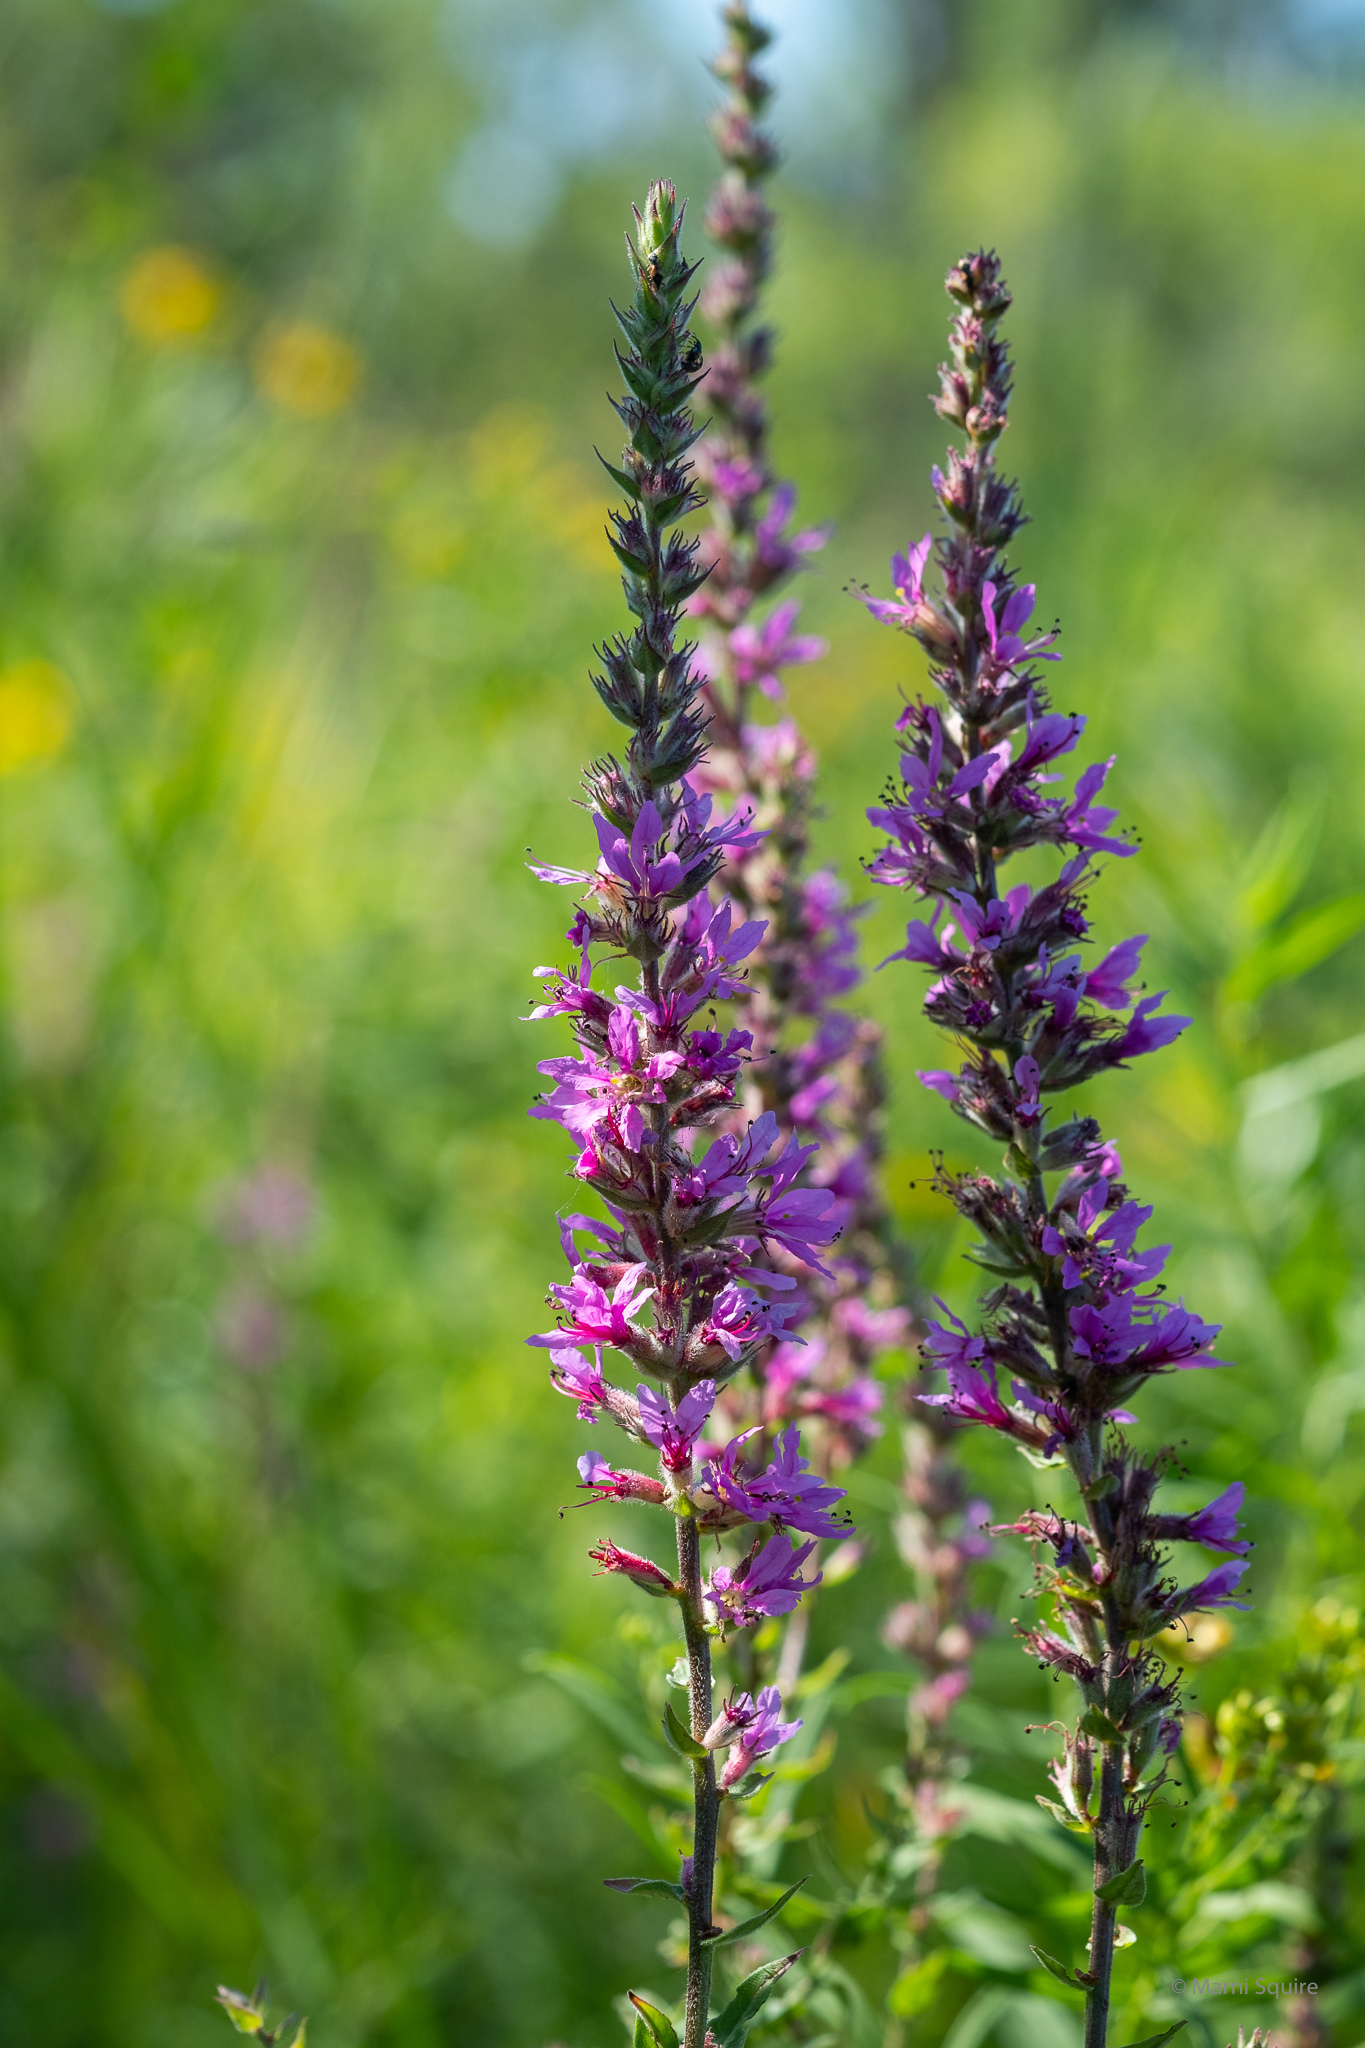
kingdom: Plantae
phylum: Tracheophyta
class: Magnoliopsida
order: Myrtales
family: Lythraceae
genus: Lythrum
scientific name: Lythrum salicaria
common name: Purple loosestrife
